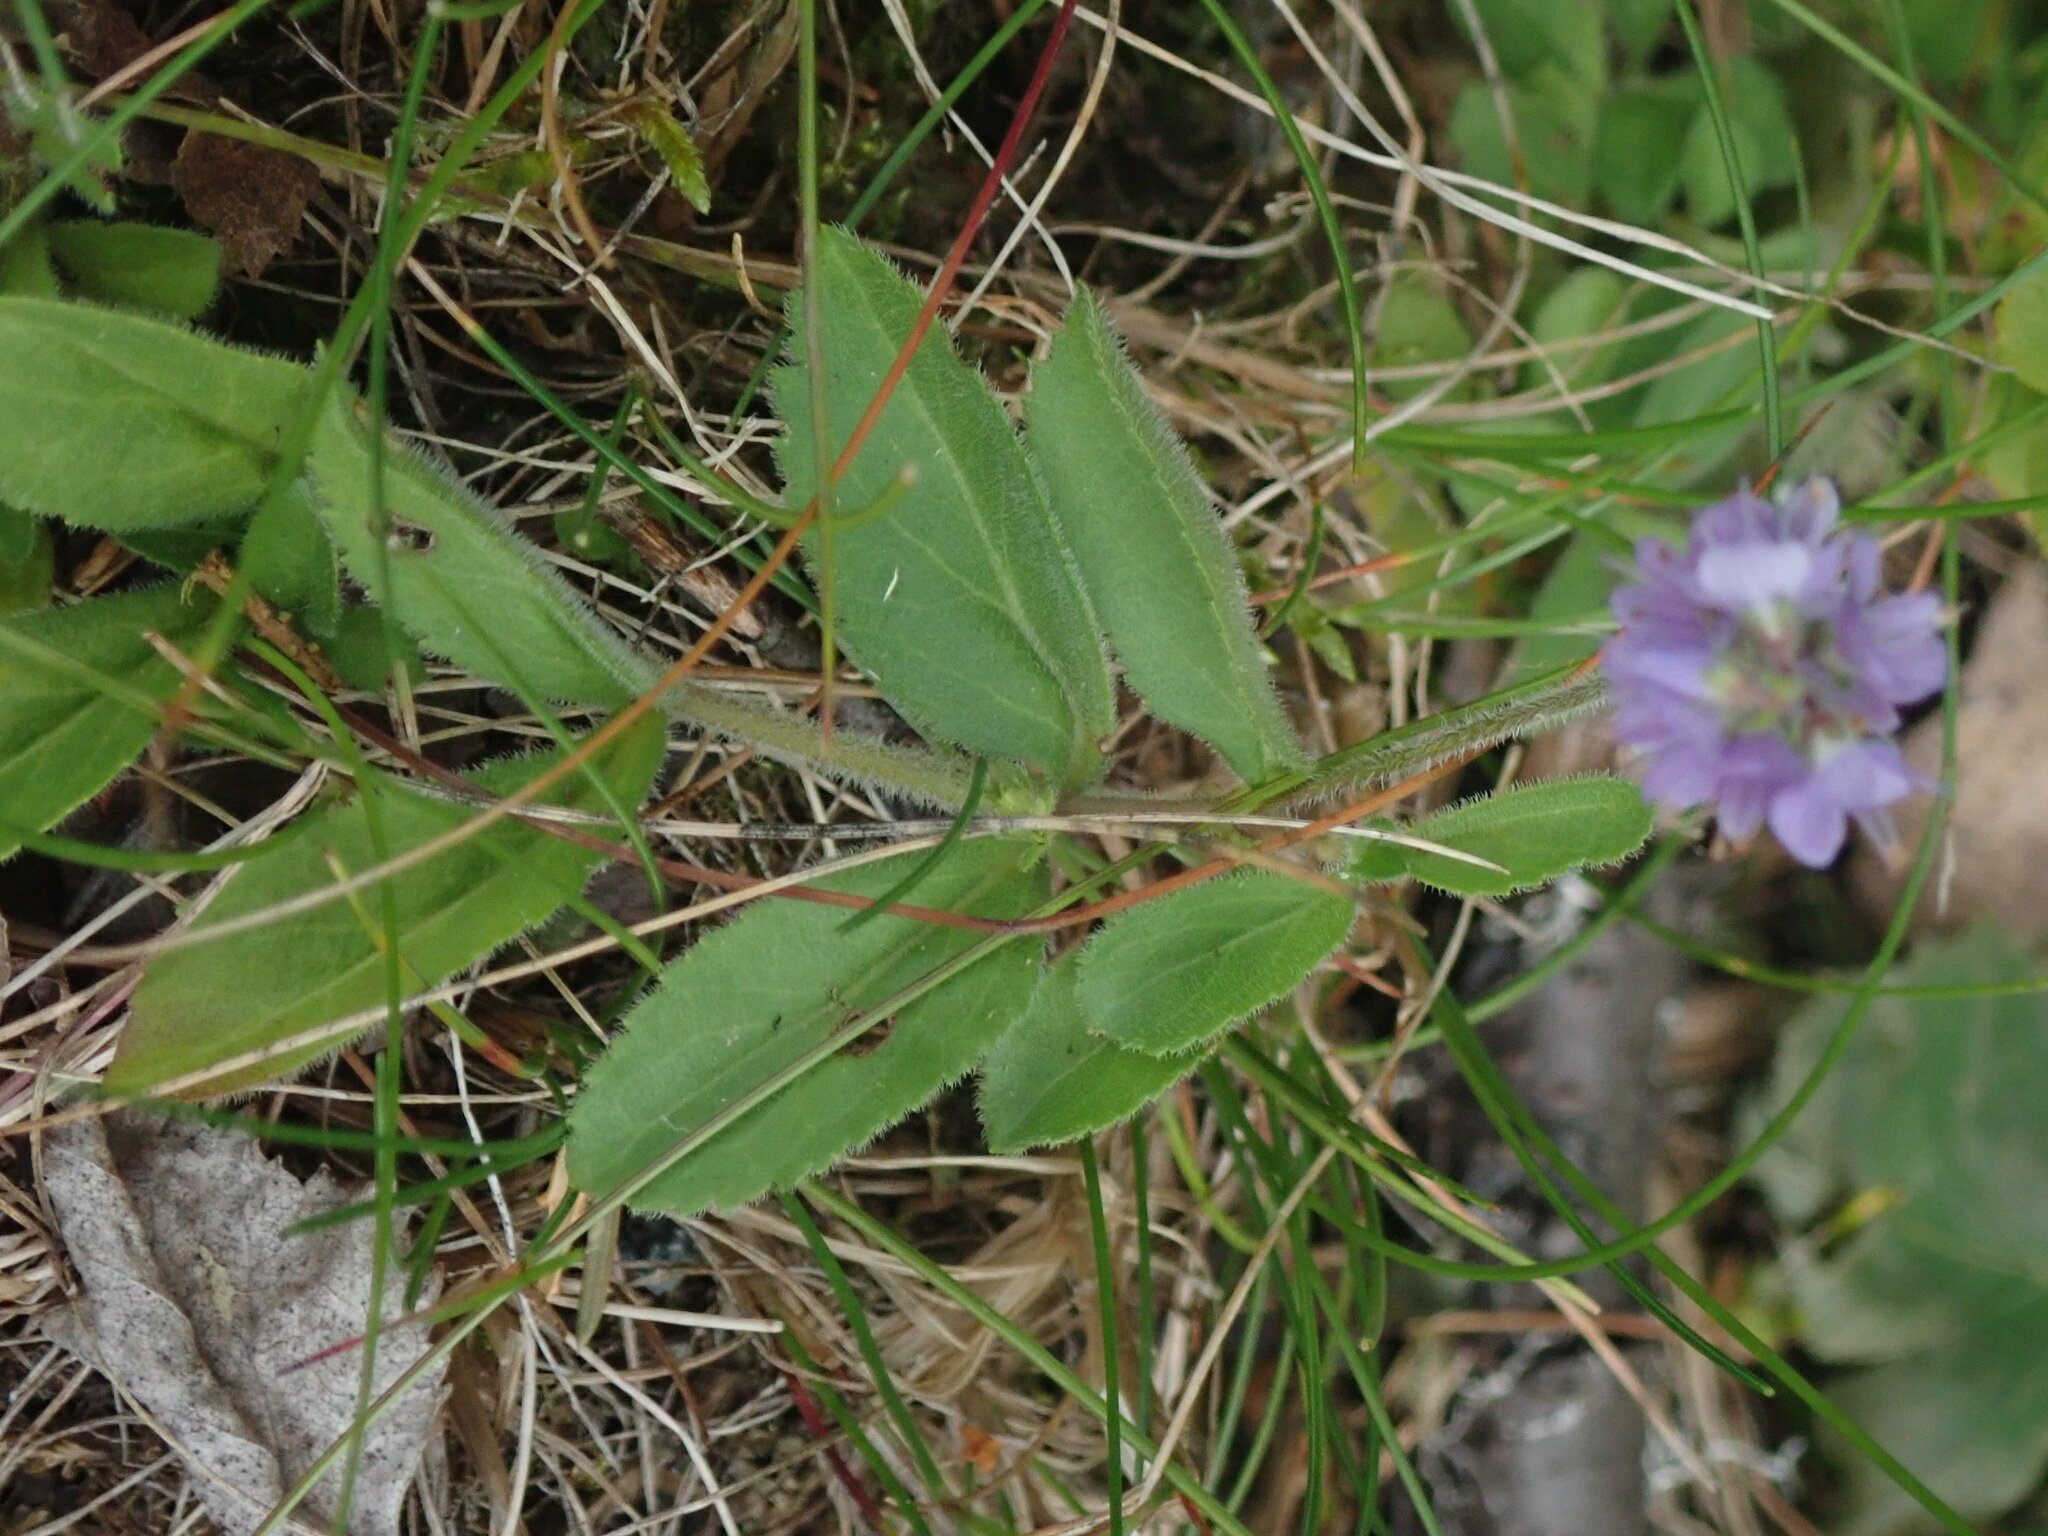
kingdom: Plantae
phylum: Tracheophyta
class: Magnoliopsida
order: Lamiales
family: Plantaginaceae
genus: Veronica
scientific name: Veronica officinalis
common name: Common speedwell
